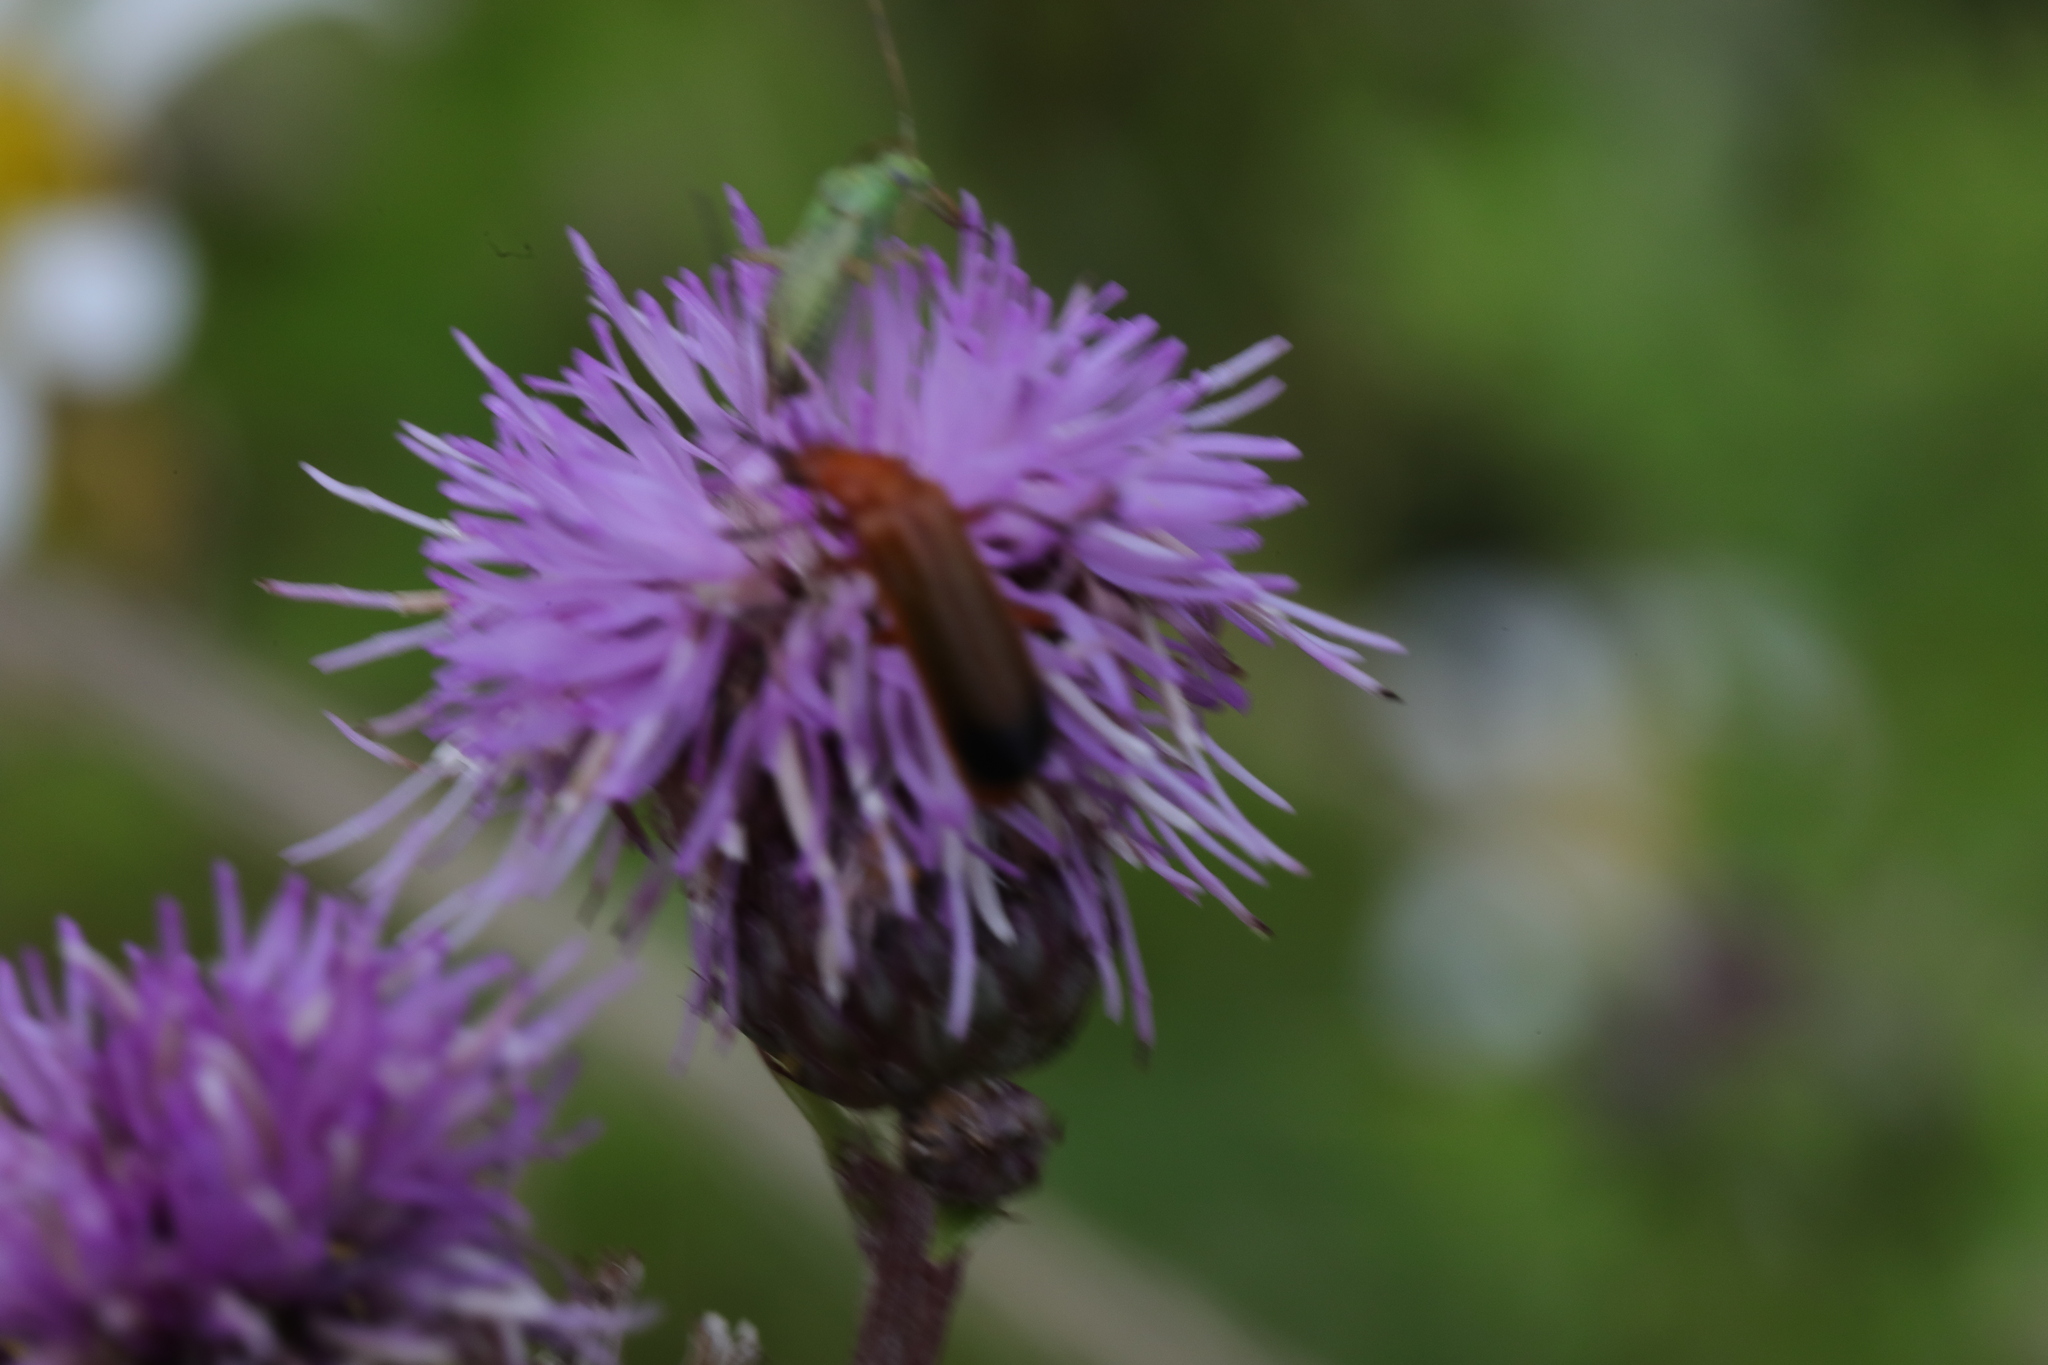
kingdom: Animalia
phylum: Arthropoda
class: Insecta
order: Coleoptera
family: Cantharidae
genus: Rhagonycha
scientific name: Rhagonycha fulva
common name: Common red soldier beetle
